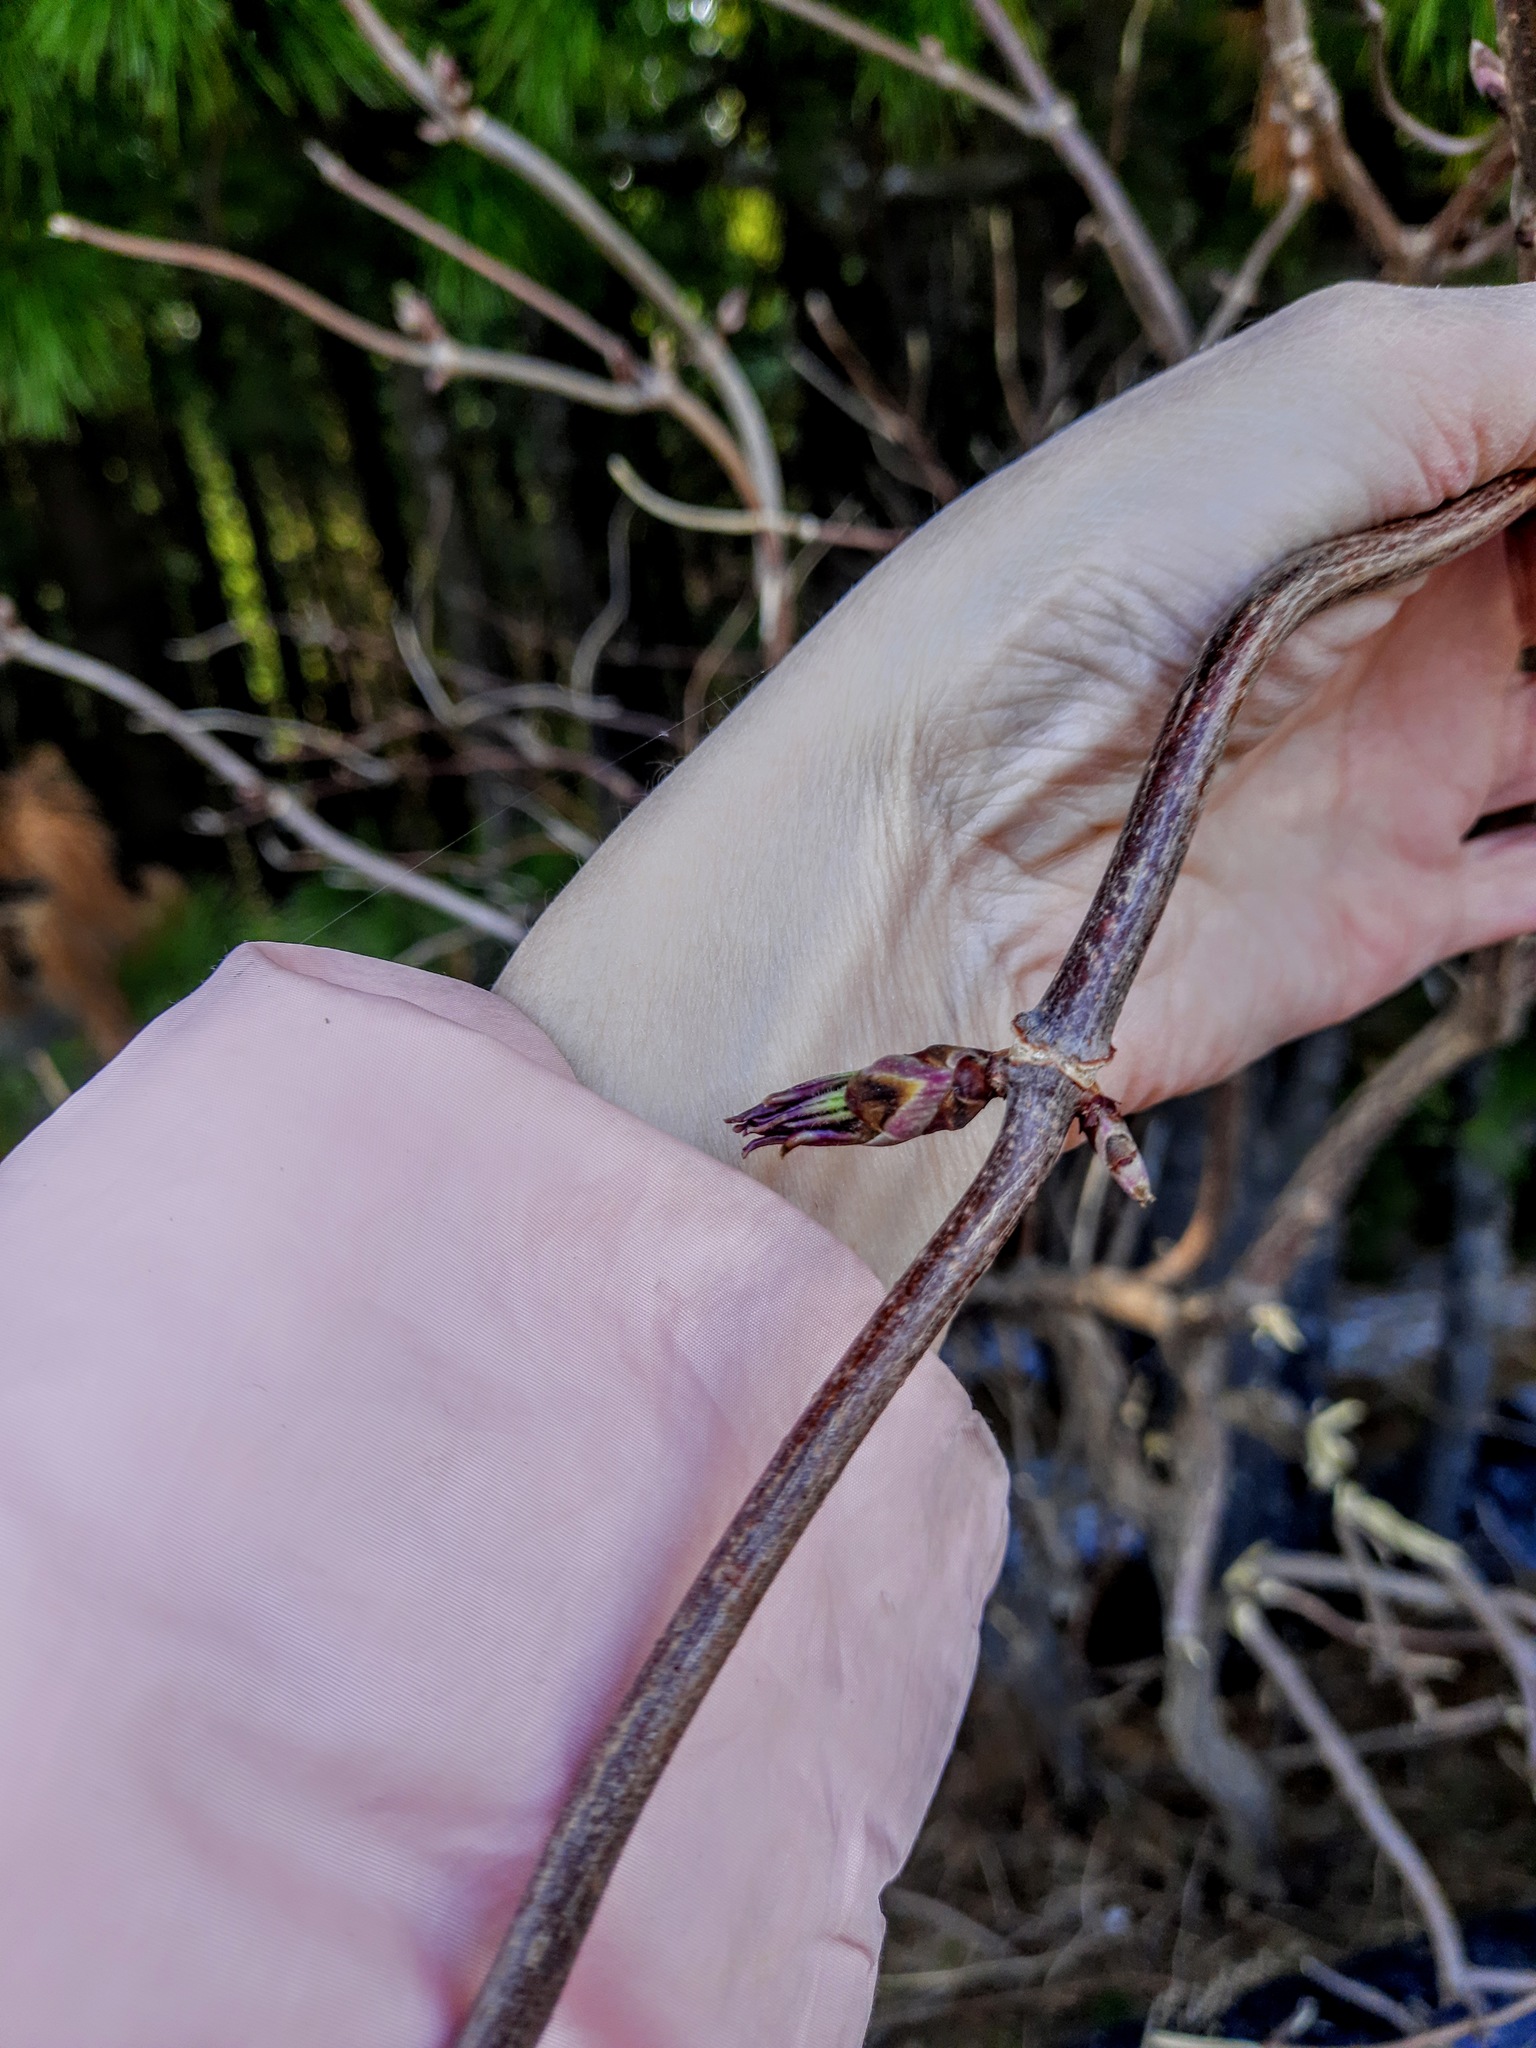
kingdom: Plantae
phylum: Tracheophyta
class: Magnoliopsida
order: Dipsacales
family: Viburnaceae
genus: Sambucus
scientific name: Sambucus sibirica
